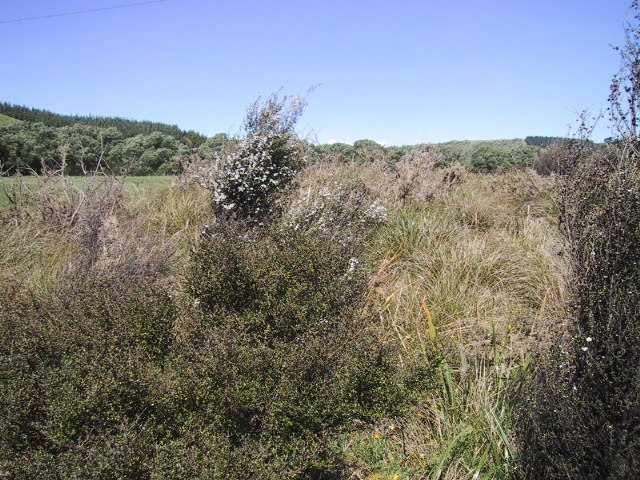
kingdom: Plantae
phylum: Tracheophyta
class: Magnoliopsida
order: Myrtales
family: Myrtaceae
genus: Leptospermum
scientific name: Leptospermum scoparium
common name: Broom tea-tree
